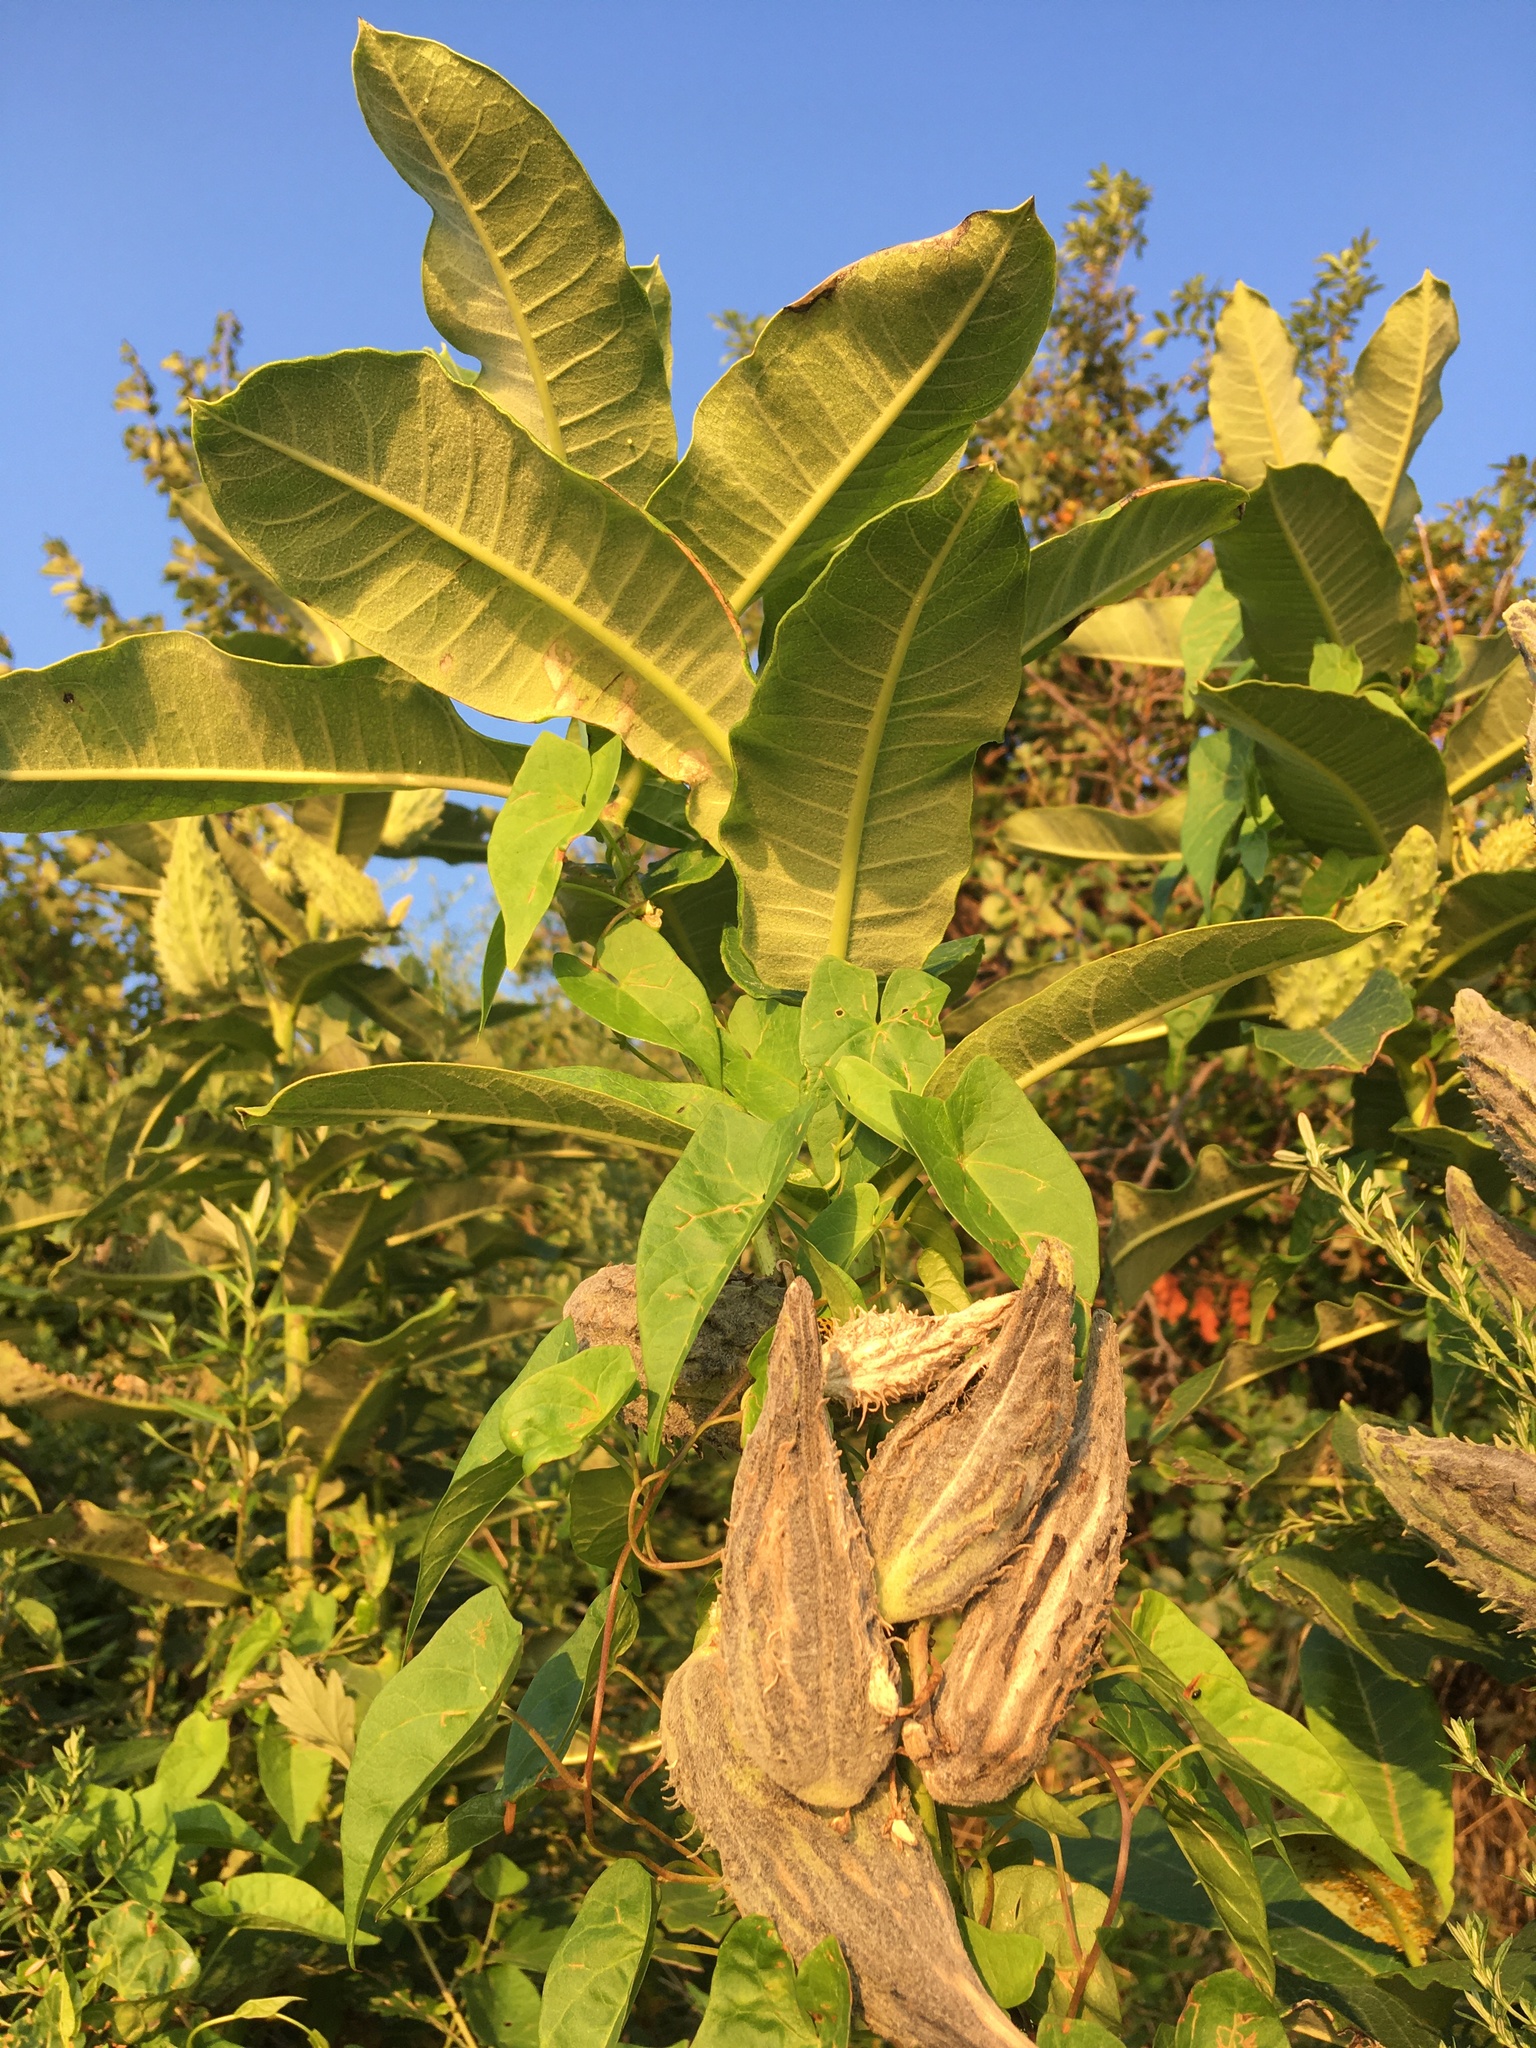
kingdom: Plantae
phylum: Tracheophyta
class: Magnoliopsida
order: Gentianales
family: Apocynaceae
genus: Asclepias
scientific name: Asclepias syriaca
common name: Common milkweed
